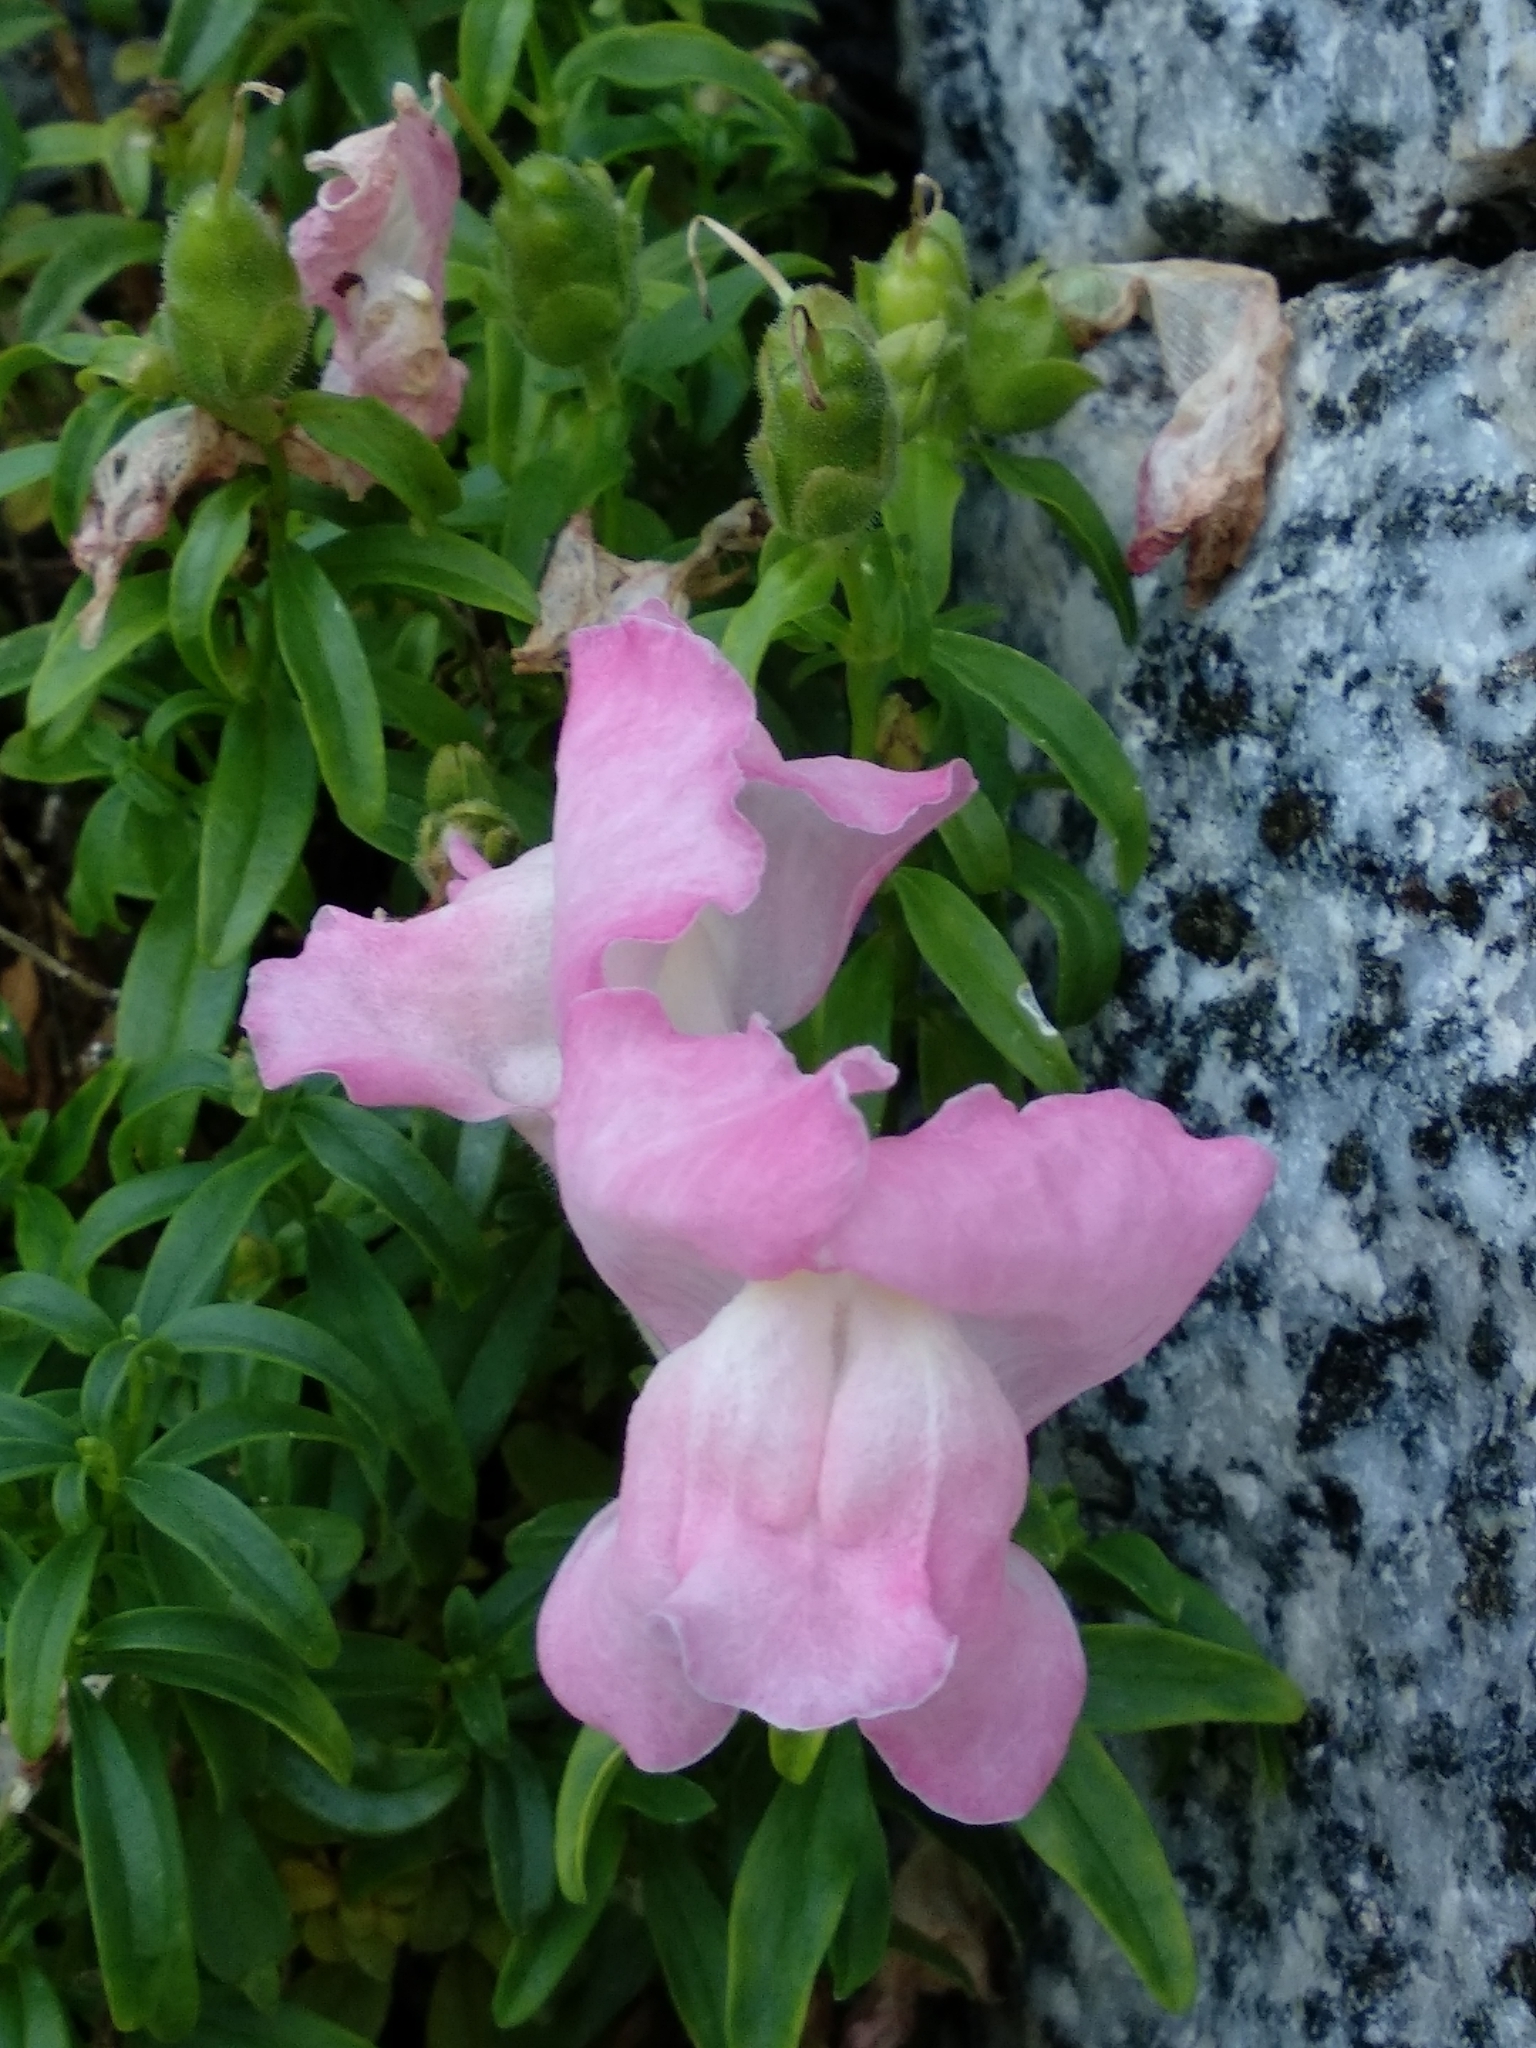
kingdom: Plantae
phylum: Tracheophyta
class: Magnoliopsida
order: Lamiales
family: Plantaginaceae
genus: Antirrhinum
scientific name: Antirrhinum majus
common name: Snapdragon
